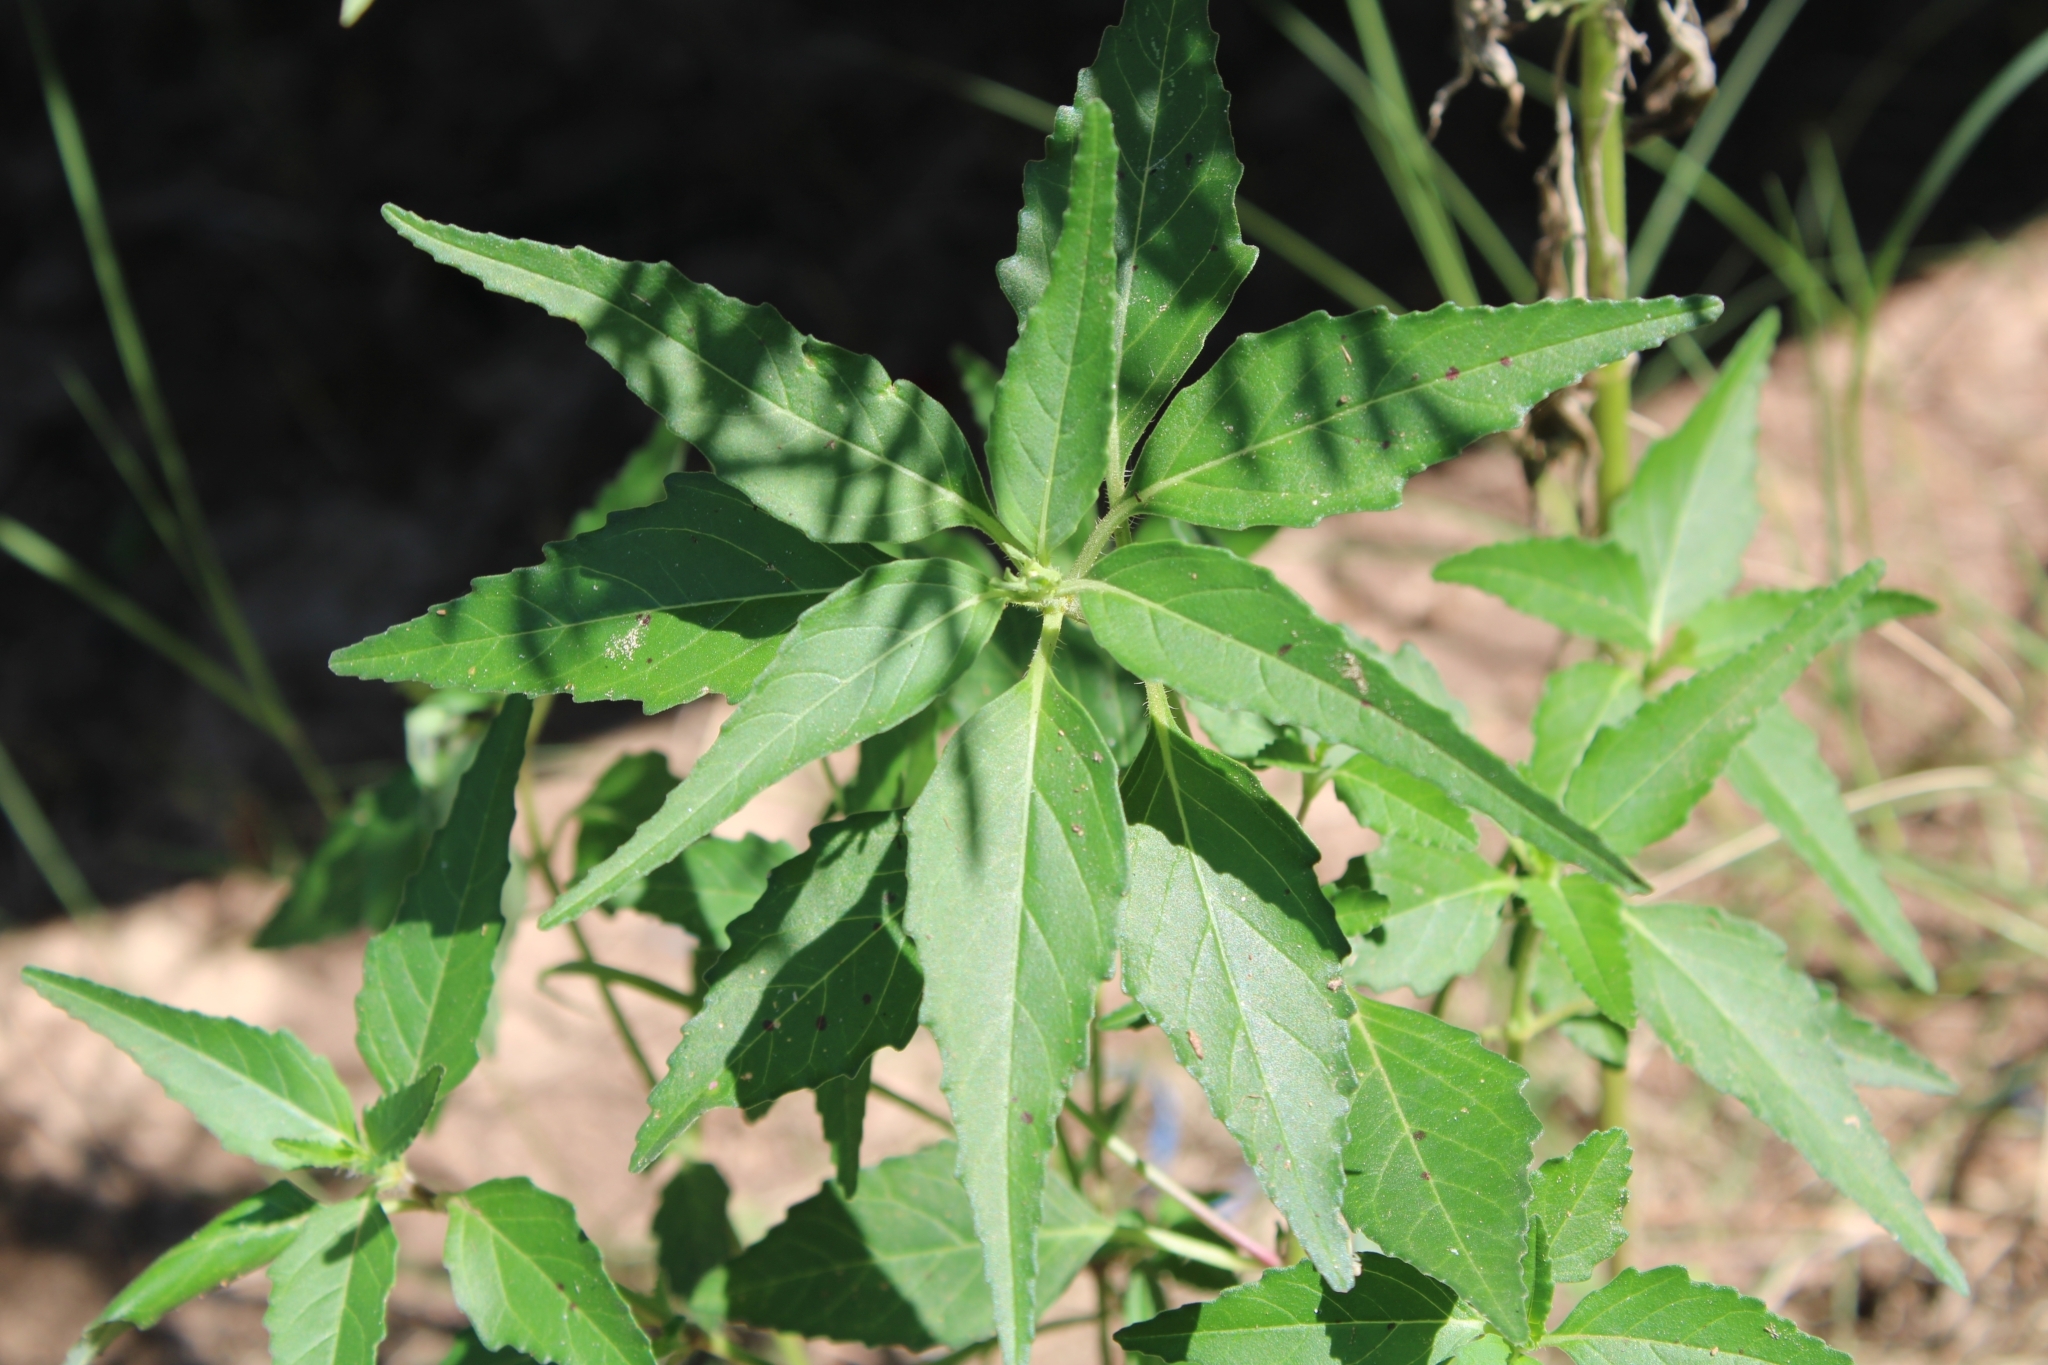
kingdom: Plantae
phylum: Tracheophyta
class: Magnoliopsida
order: Malpighiales
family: Euphorbiaceae
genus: Euphorbia
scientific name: Euphorbia dentata
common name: Dentate spurge
